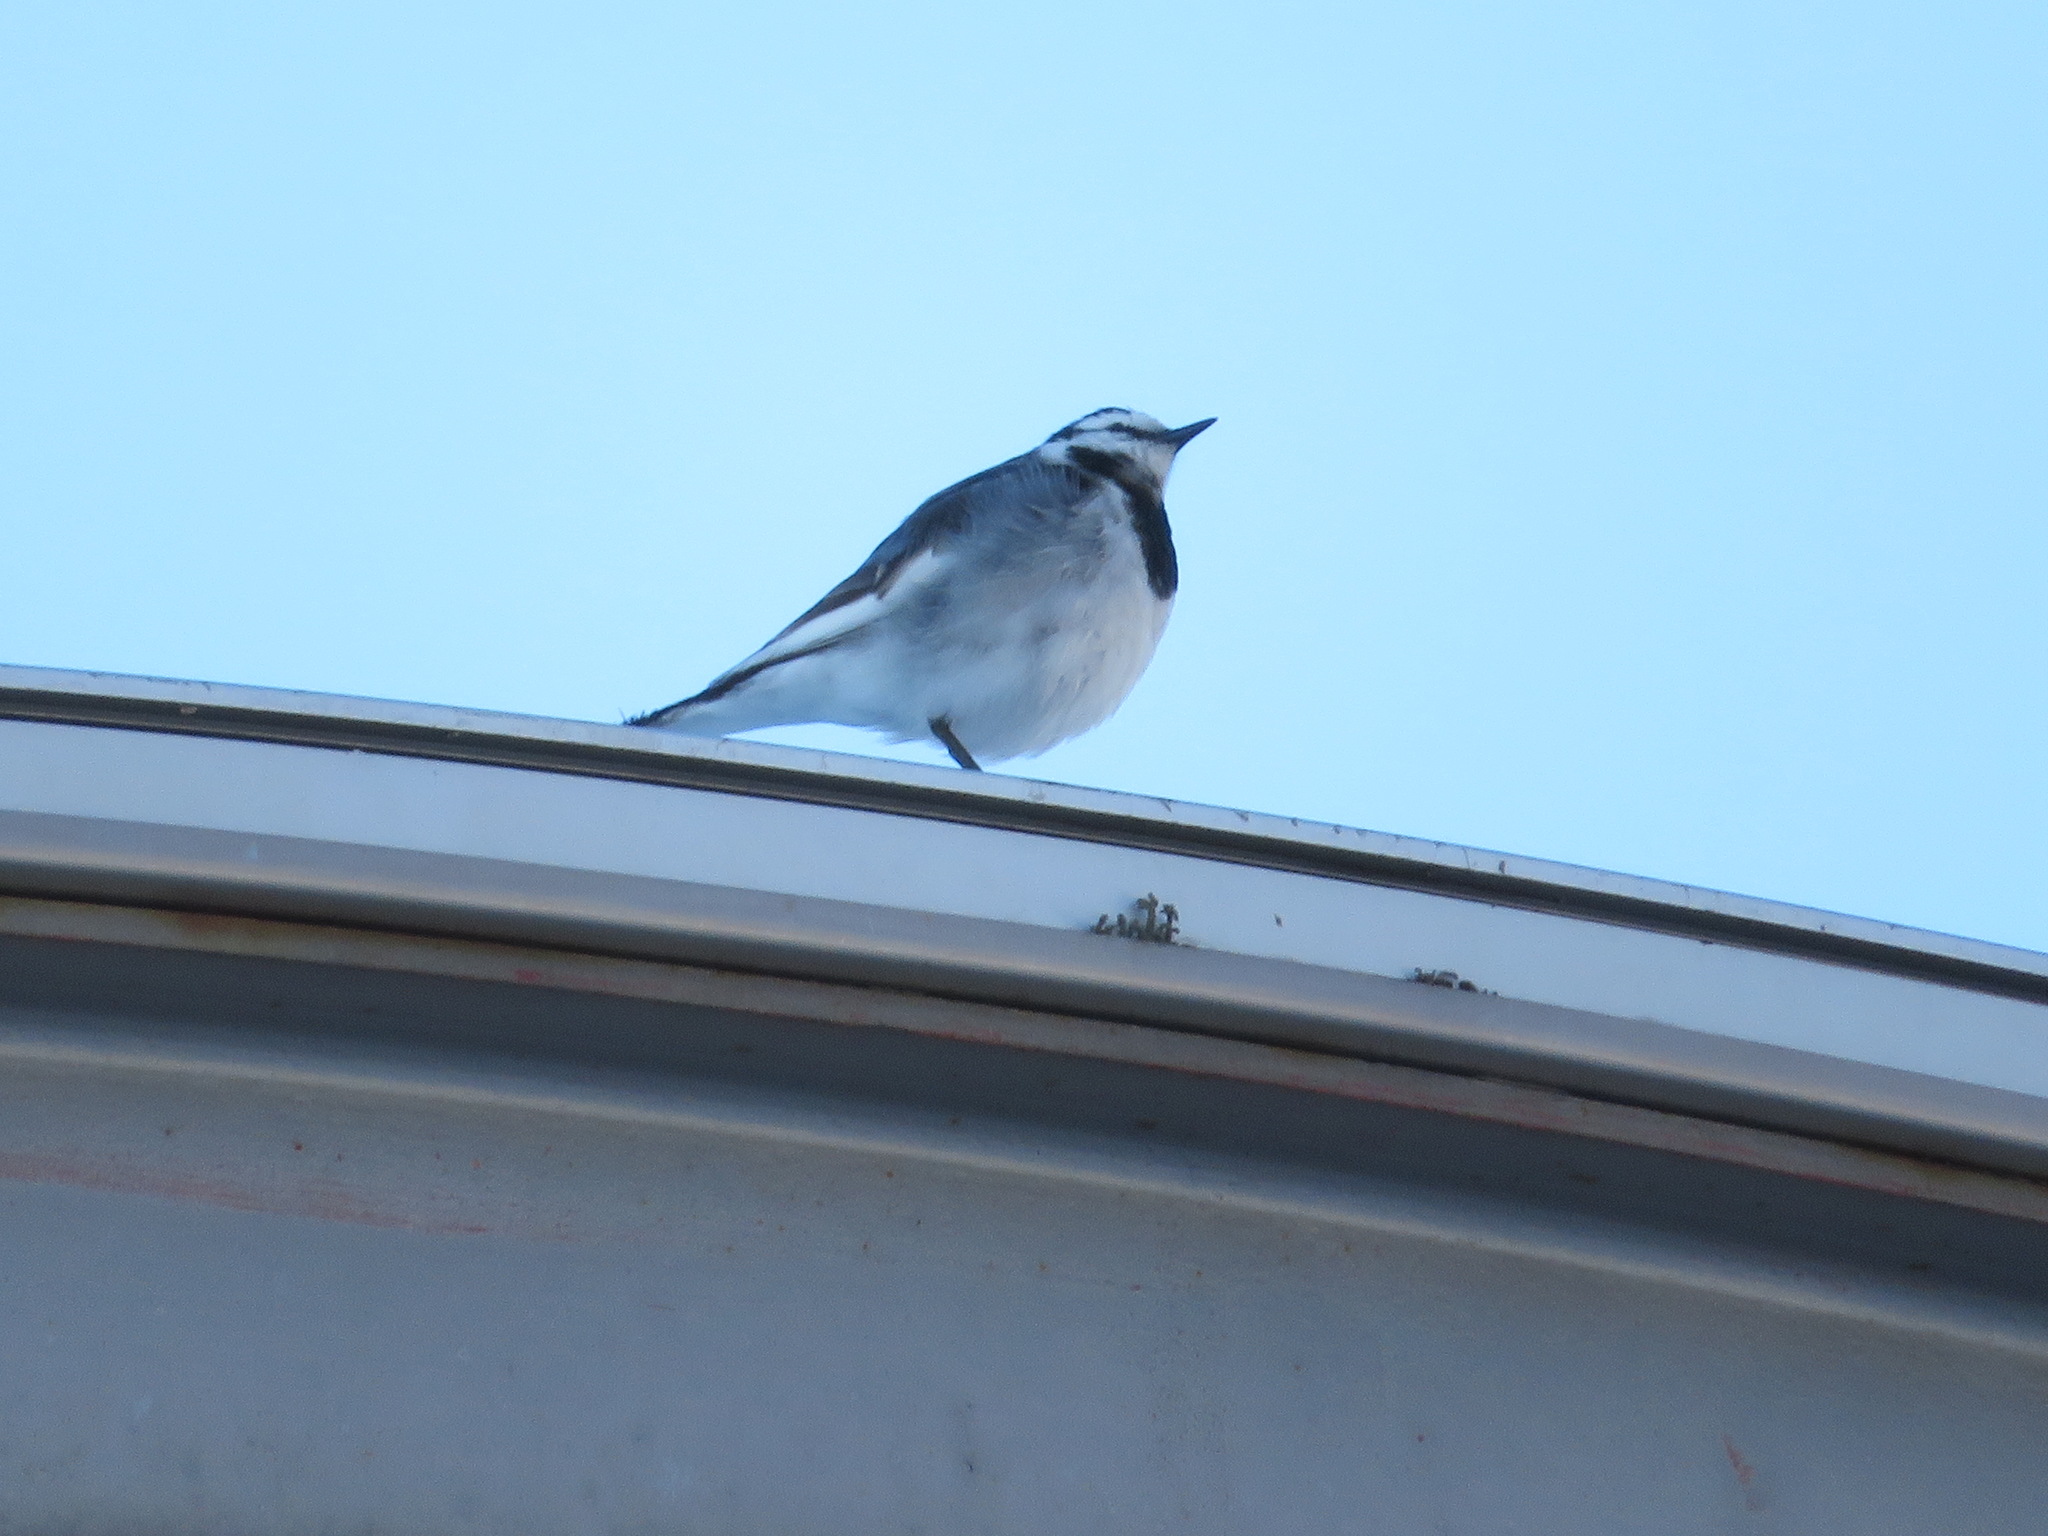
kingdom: Animalia
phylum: Chordata
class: Aves
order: Passeriformes
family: Motacillidae
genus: Motacilla
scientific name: Motacilla alba
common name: White wagtail
